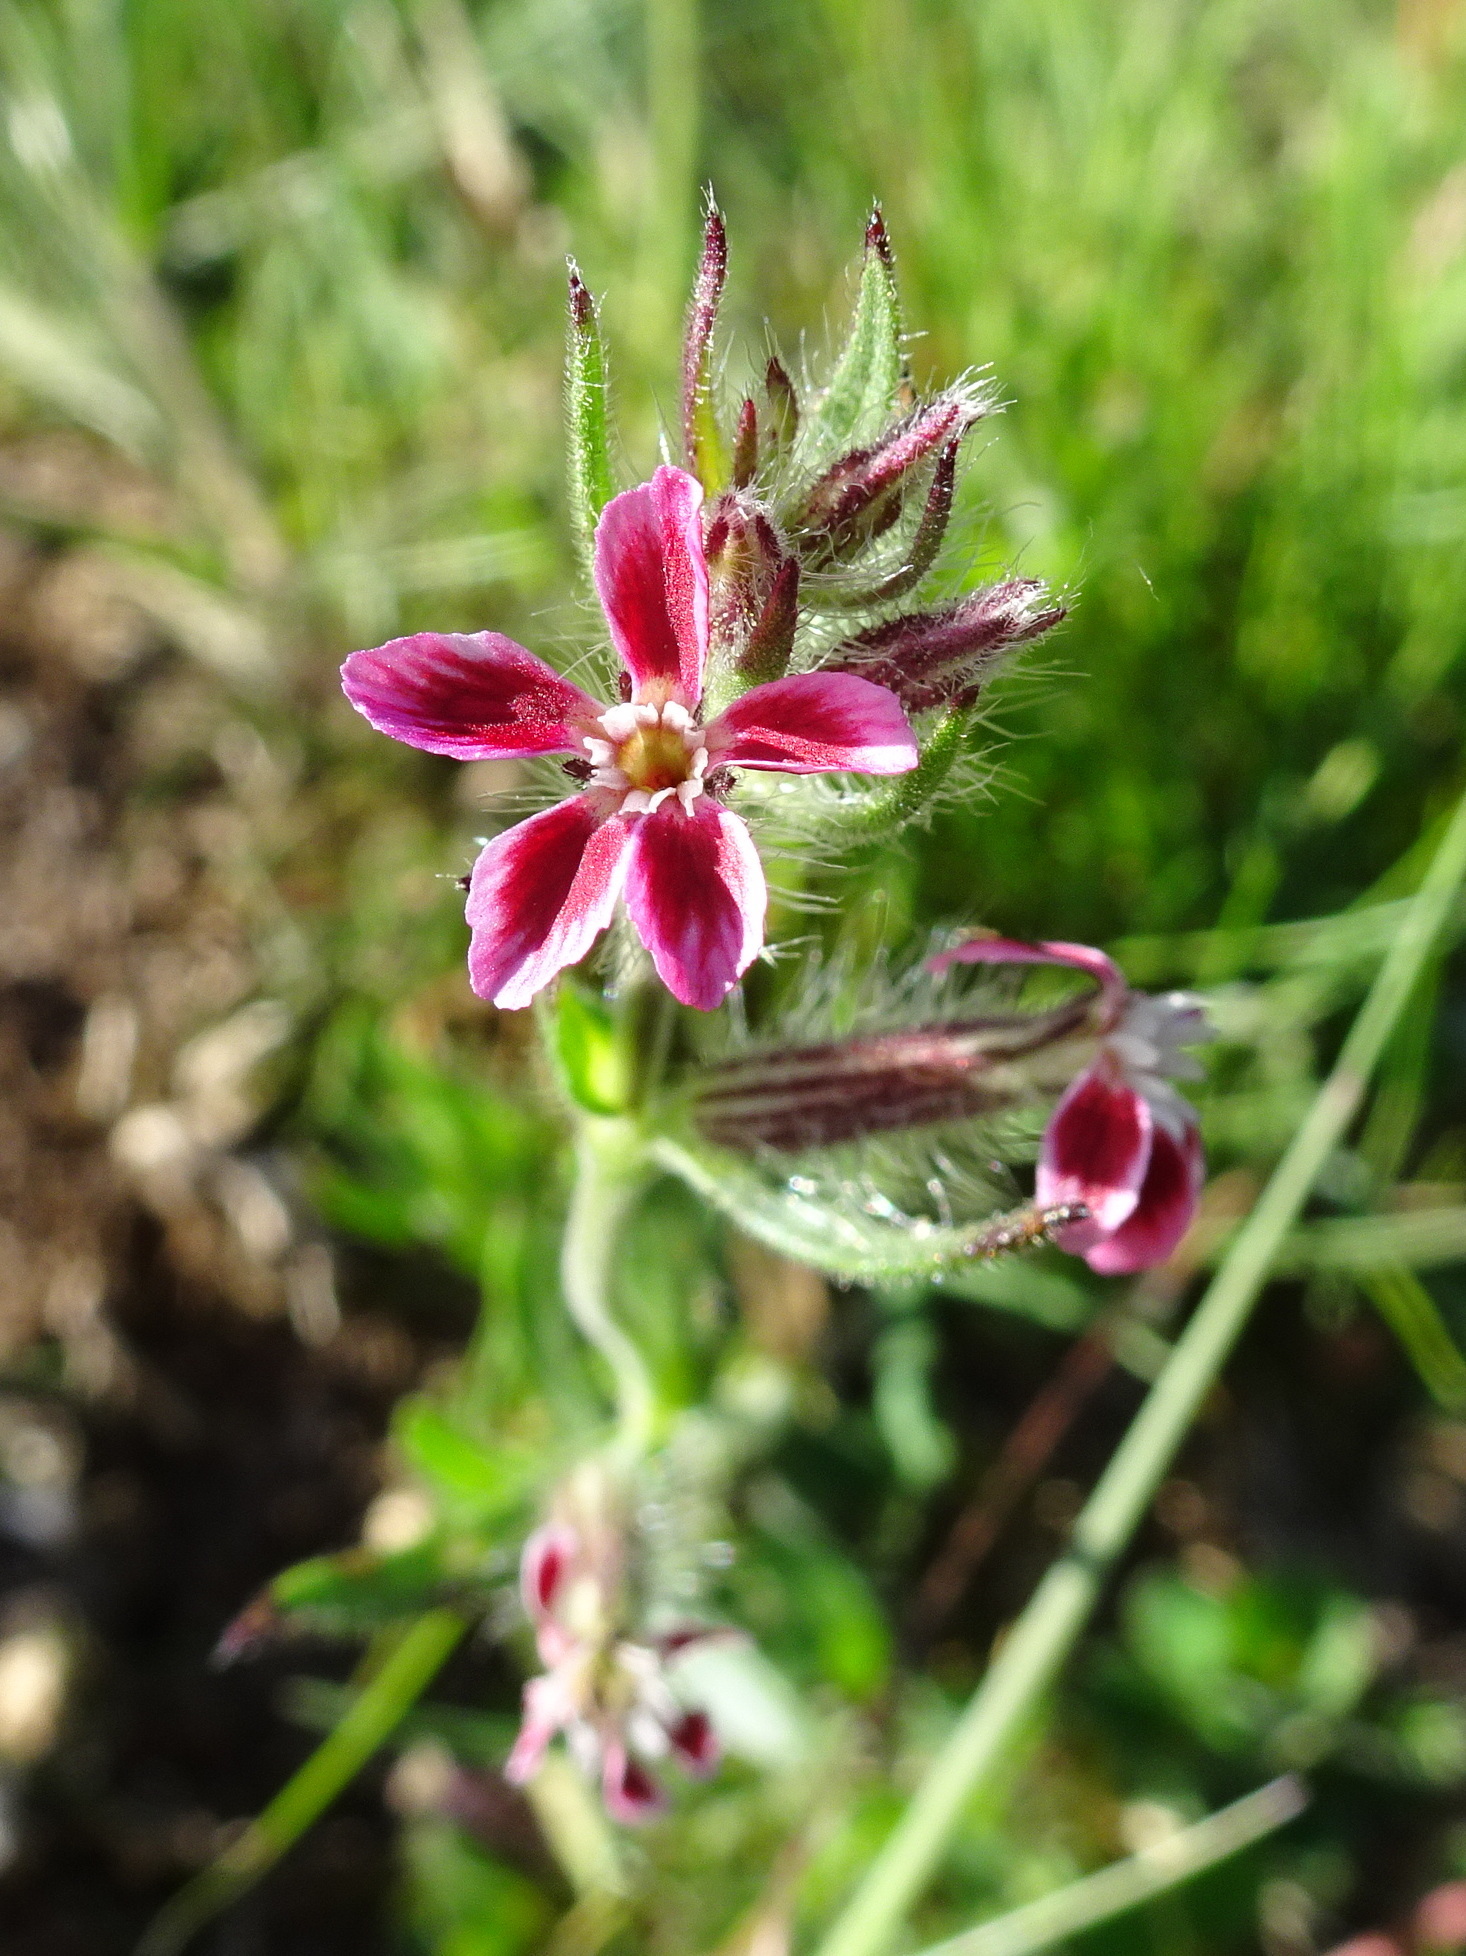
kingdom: Plantae
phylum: Tracheophyta
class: Magnoliopsida
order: Caryophyllales
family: Caryophyllaceae
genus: Silene
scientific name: Silene gallica
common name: Small-flowered catchfly
